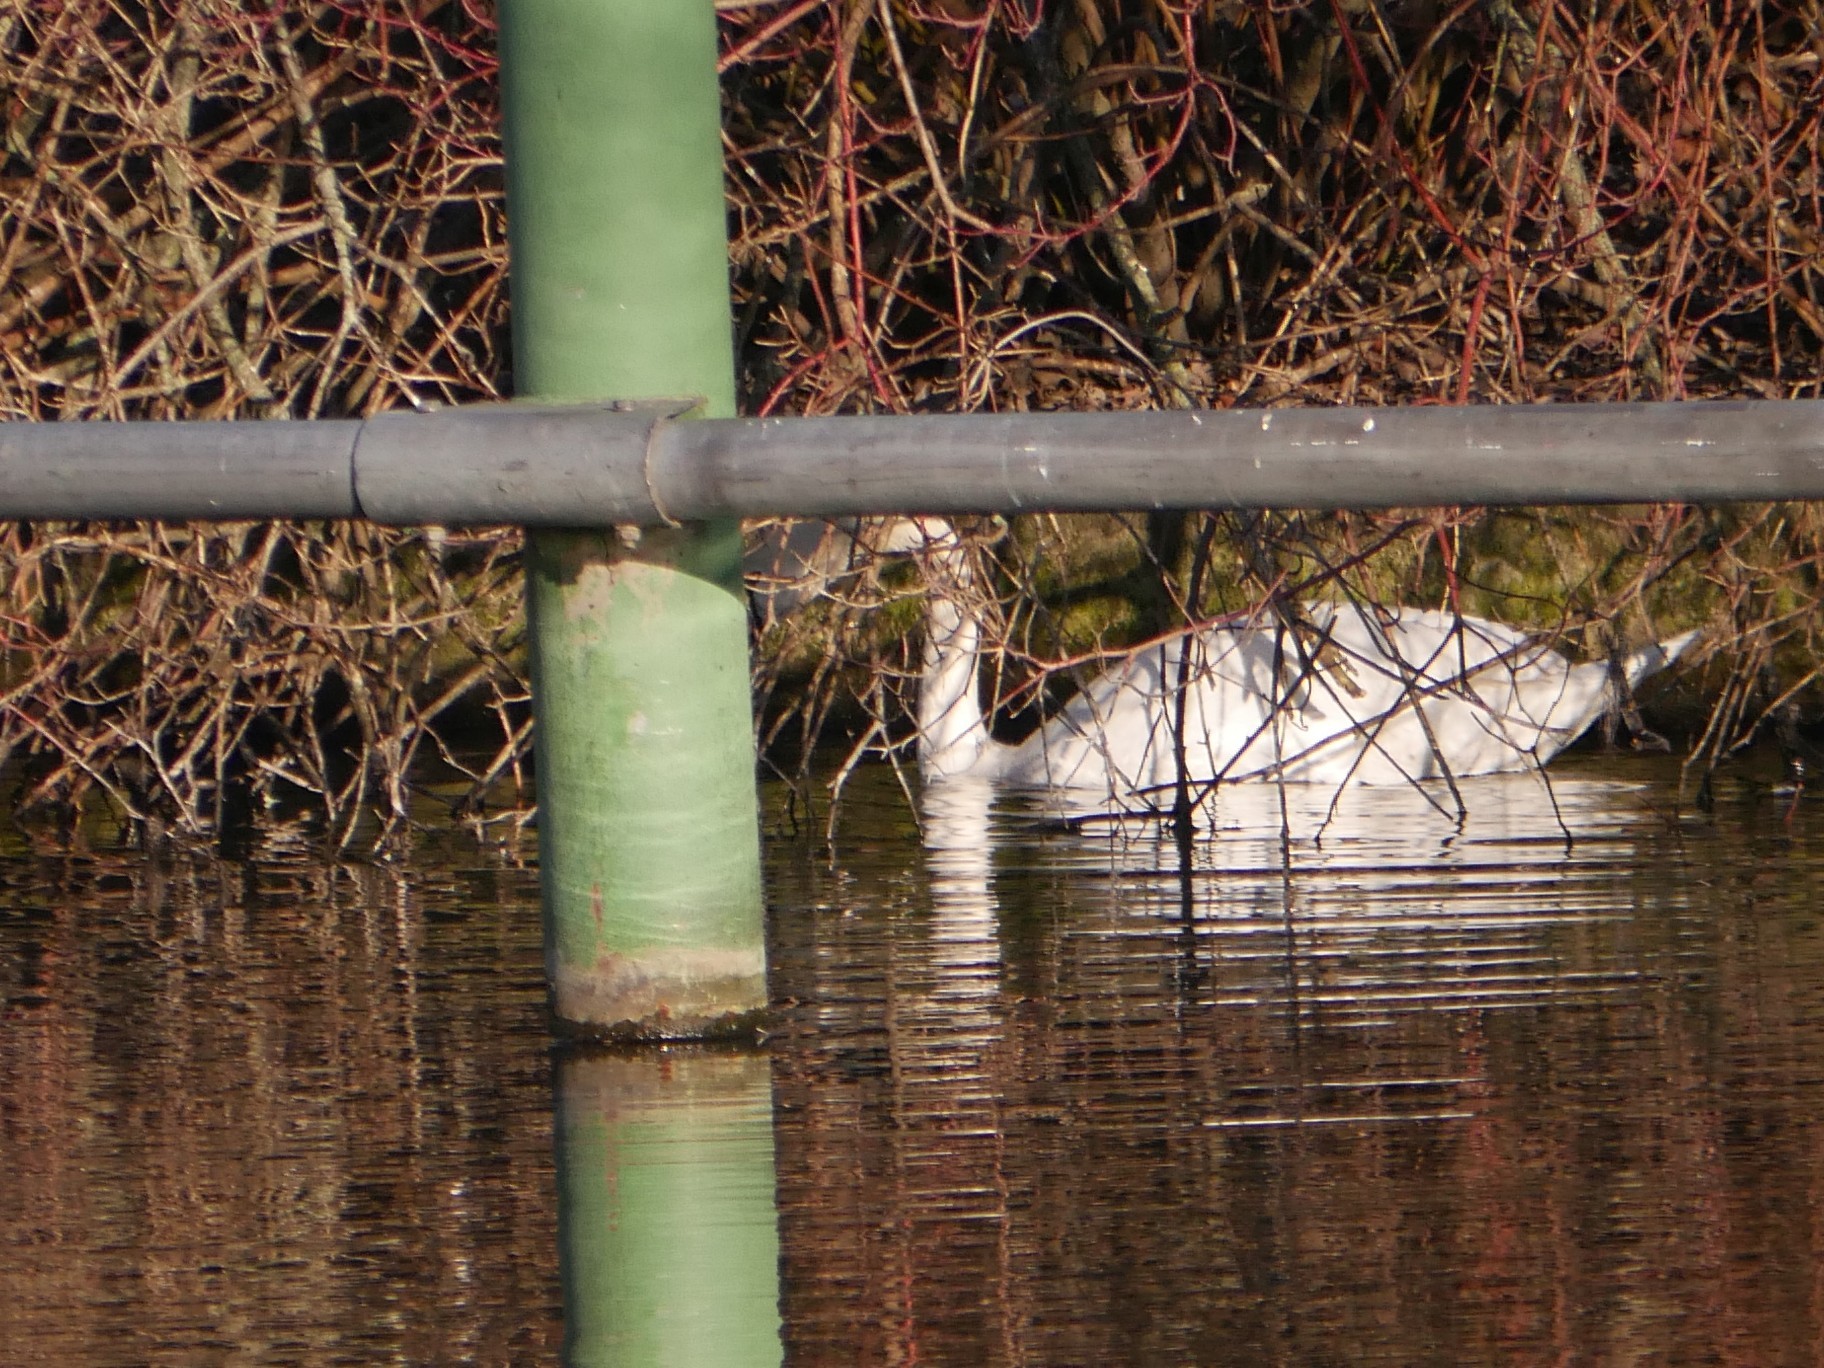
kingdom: Animalia
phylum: Chordata
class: Aves
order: Anseriformes
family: Anatidae
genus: Cygnus
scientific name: Cygnus olor
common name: Mute swan
